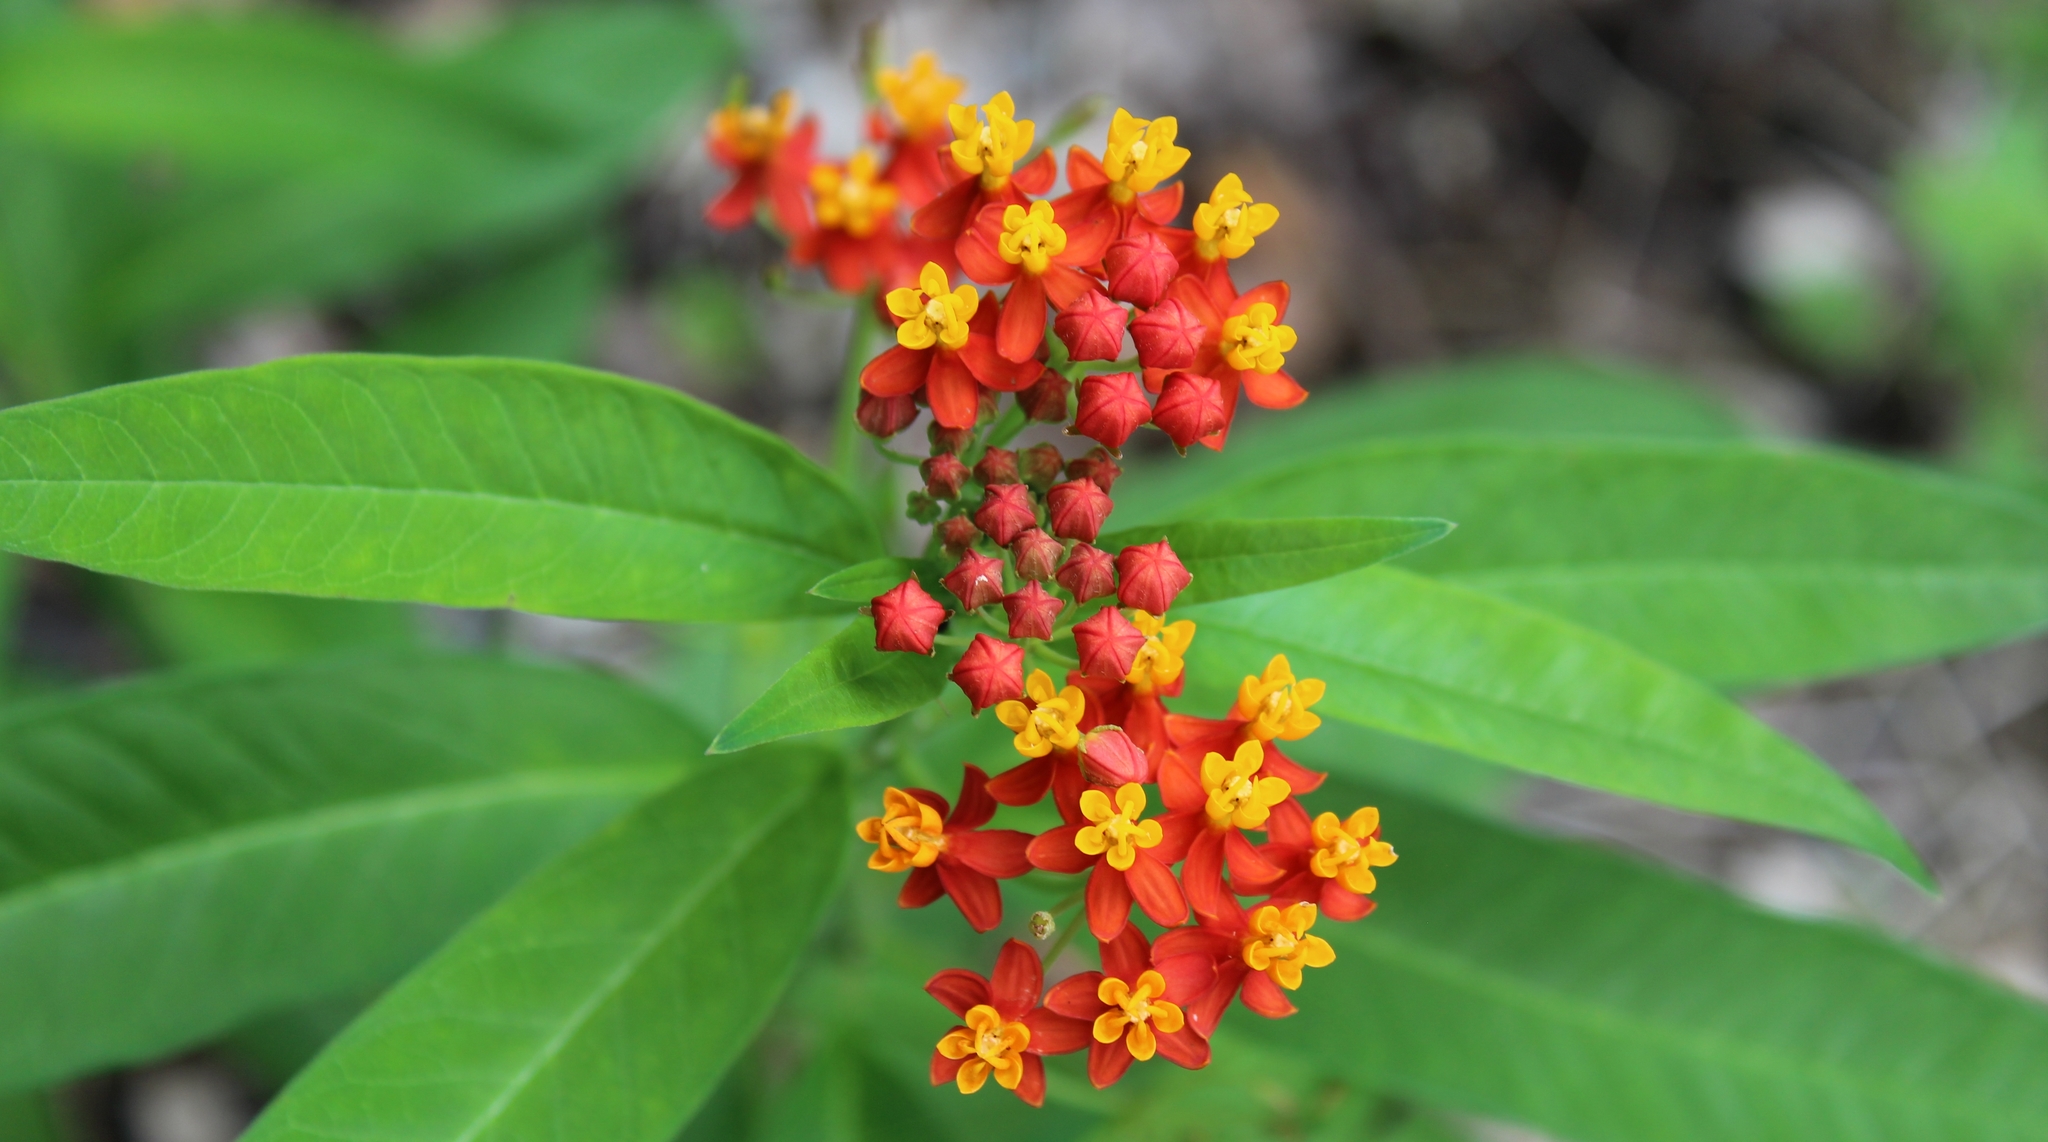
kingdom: Plantae
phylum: Tracheophyta
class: Magnoliopsida
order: Gentianales
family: Apocynaceae
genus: Asclepias
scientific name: Asclepias curassavica
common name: Bloodflower
